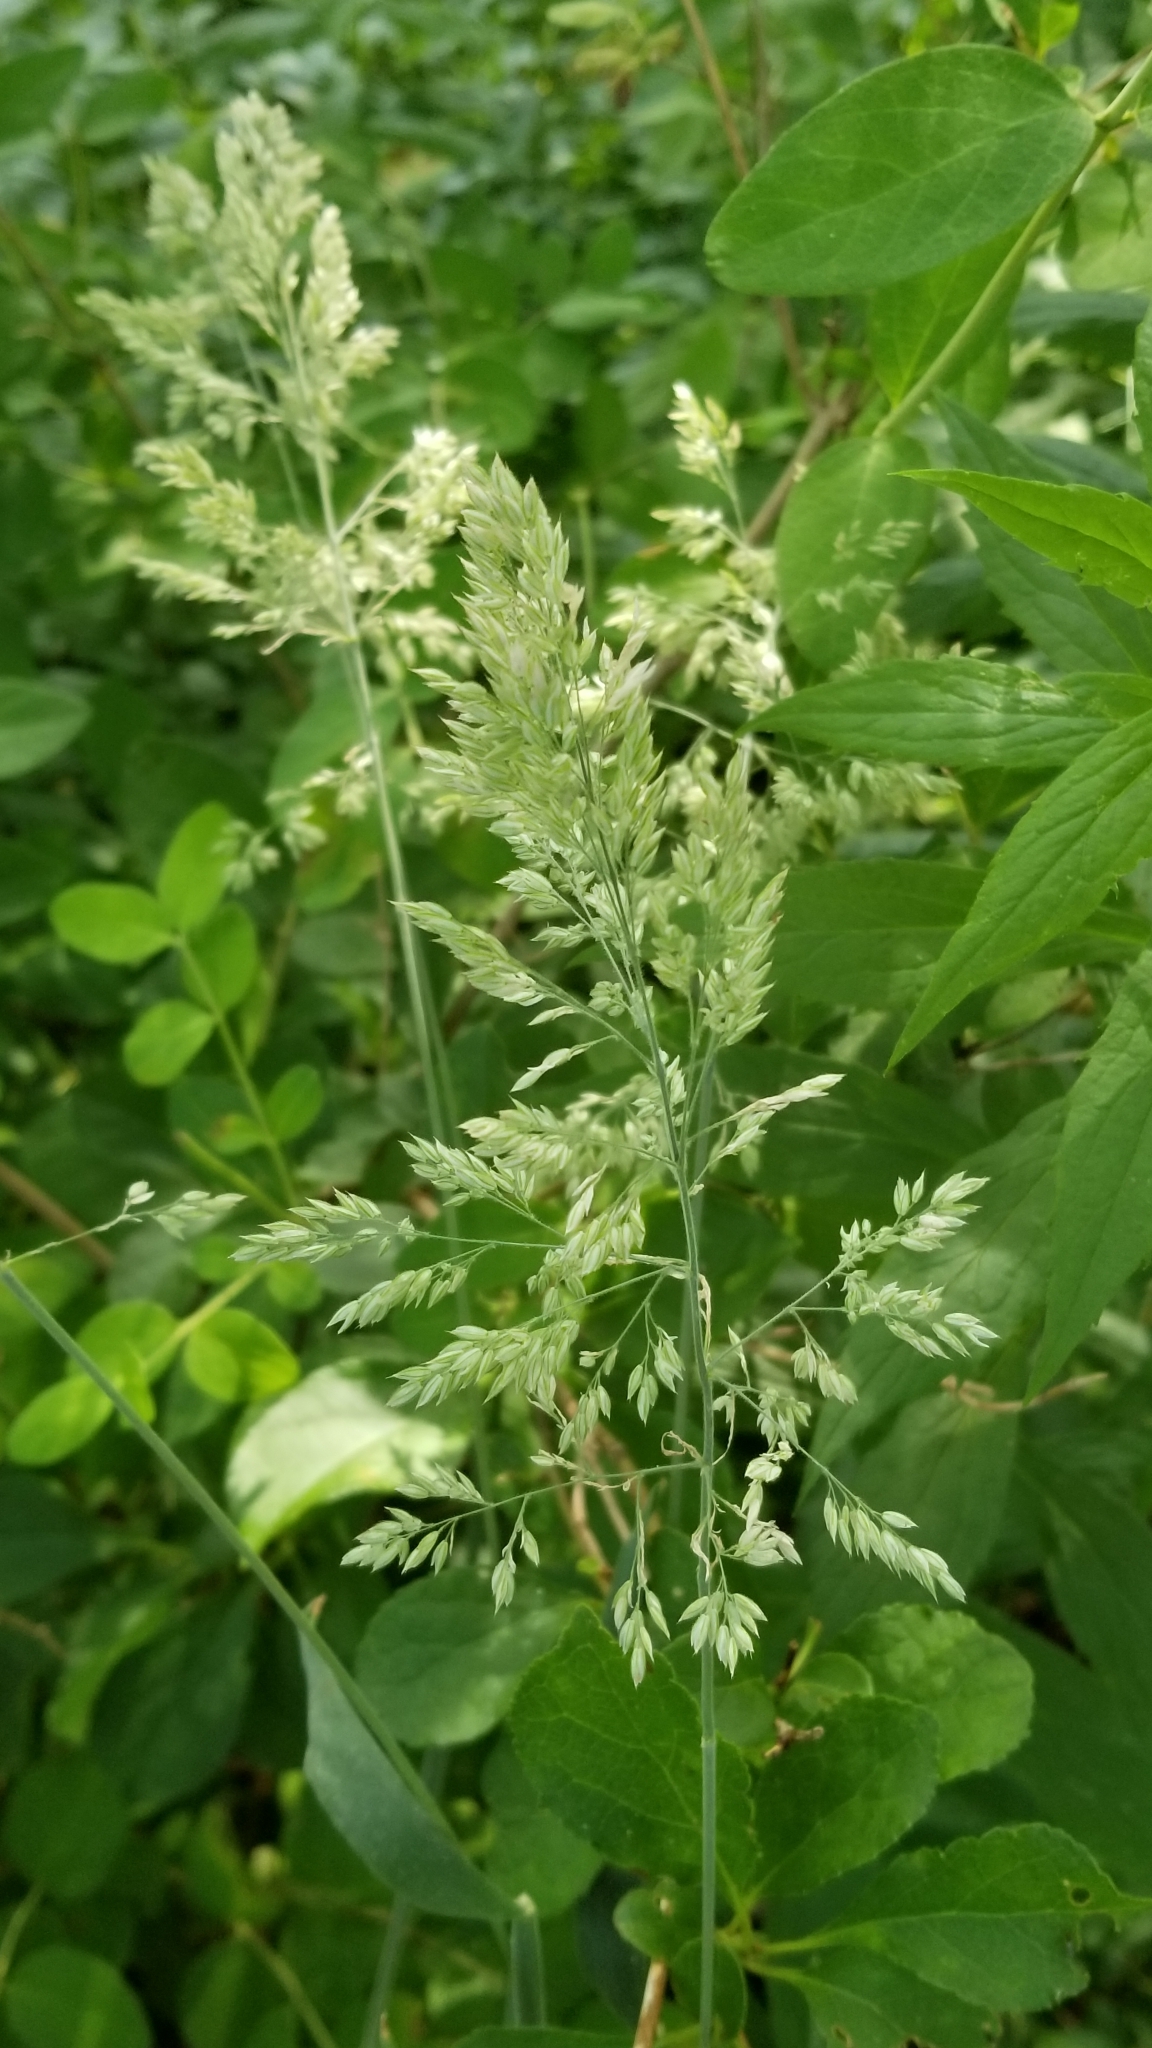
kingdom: Plantae
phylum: Tracheophyta
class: Liliopsida
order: Poales
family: Poaceae
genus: Holcus
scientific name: Holcus lanatus
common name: Yorkshire-fog
